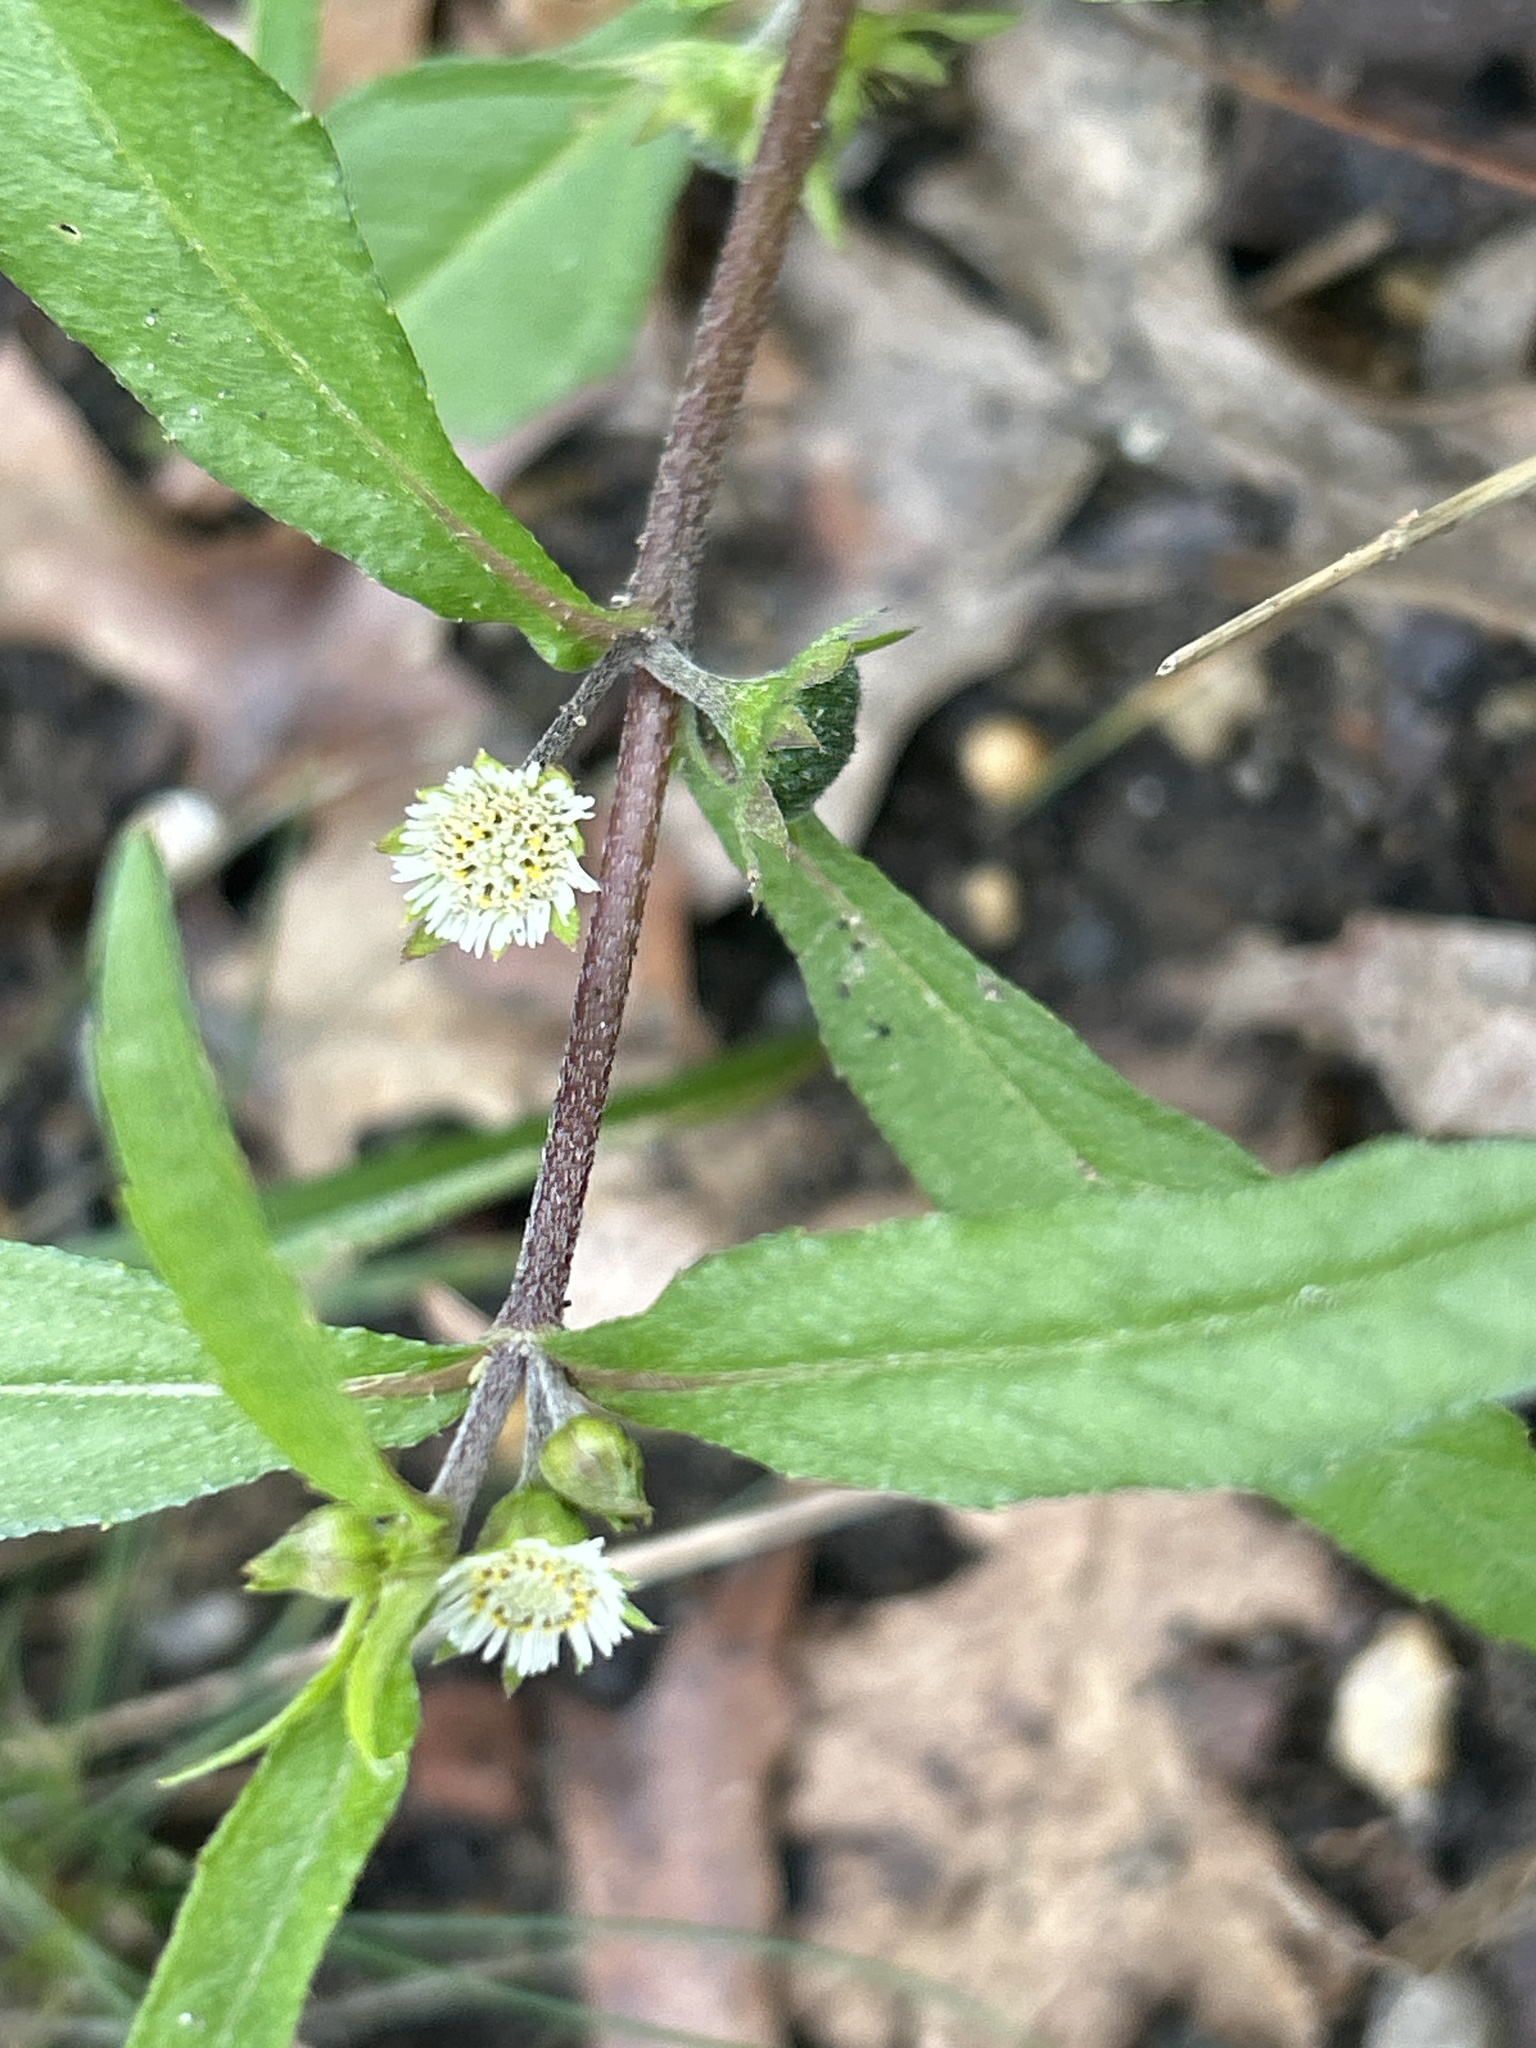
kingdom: Plantae
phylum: Tracheophyta
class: Magnoliopsida
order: Asterales
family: Asteraceae
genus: Eclipta
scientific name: Eclipta prostrata
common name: False daisy
